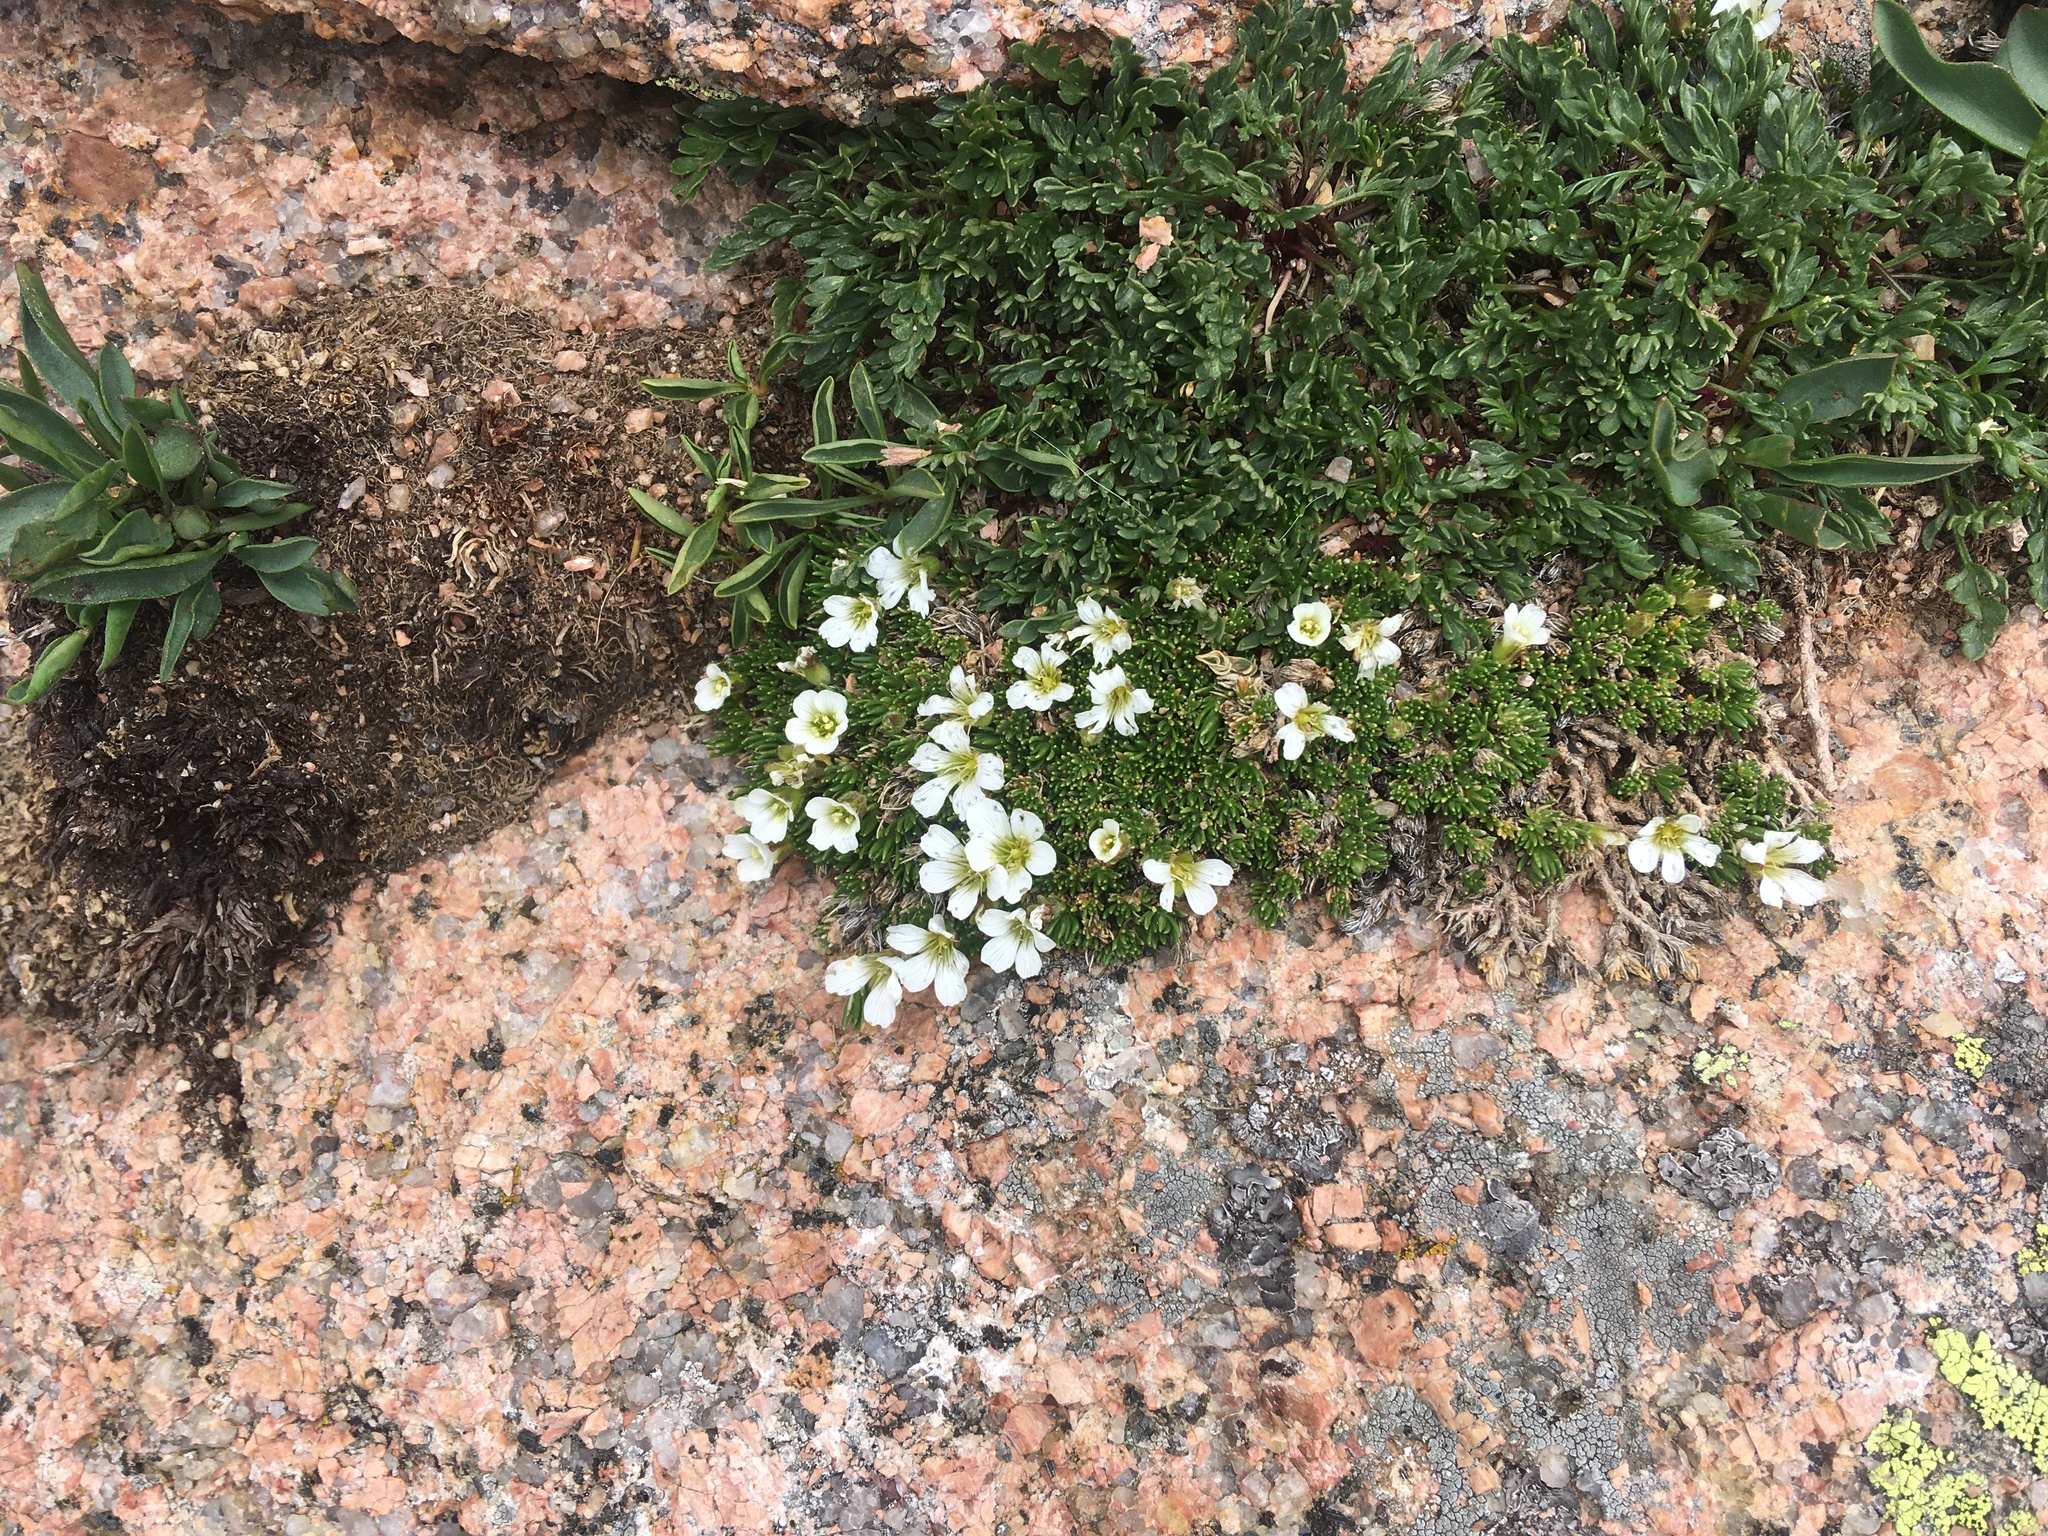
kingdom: Plantae
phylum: Tracheophyta
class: Magnoliopsida
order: Caryophyllales
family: Caryophyllaceae
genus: Cherleria
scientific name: Cherleria obtusiloba
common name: Alpine stitchwort
